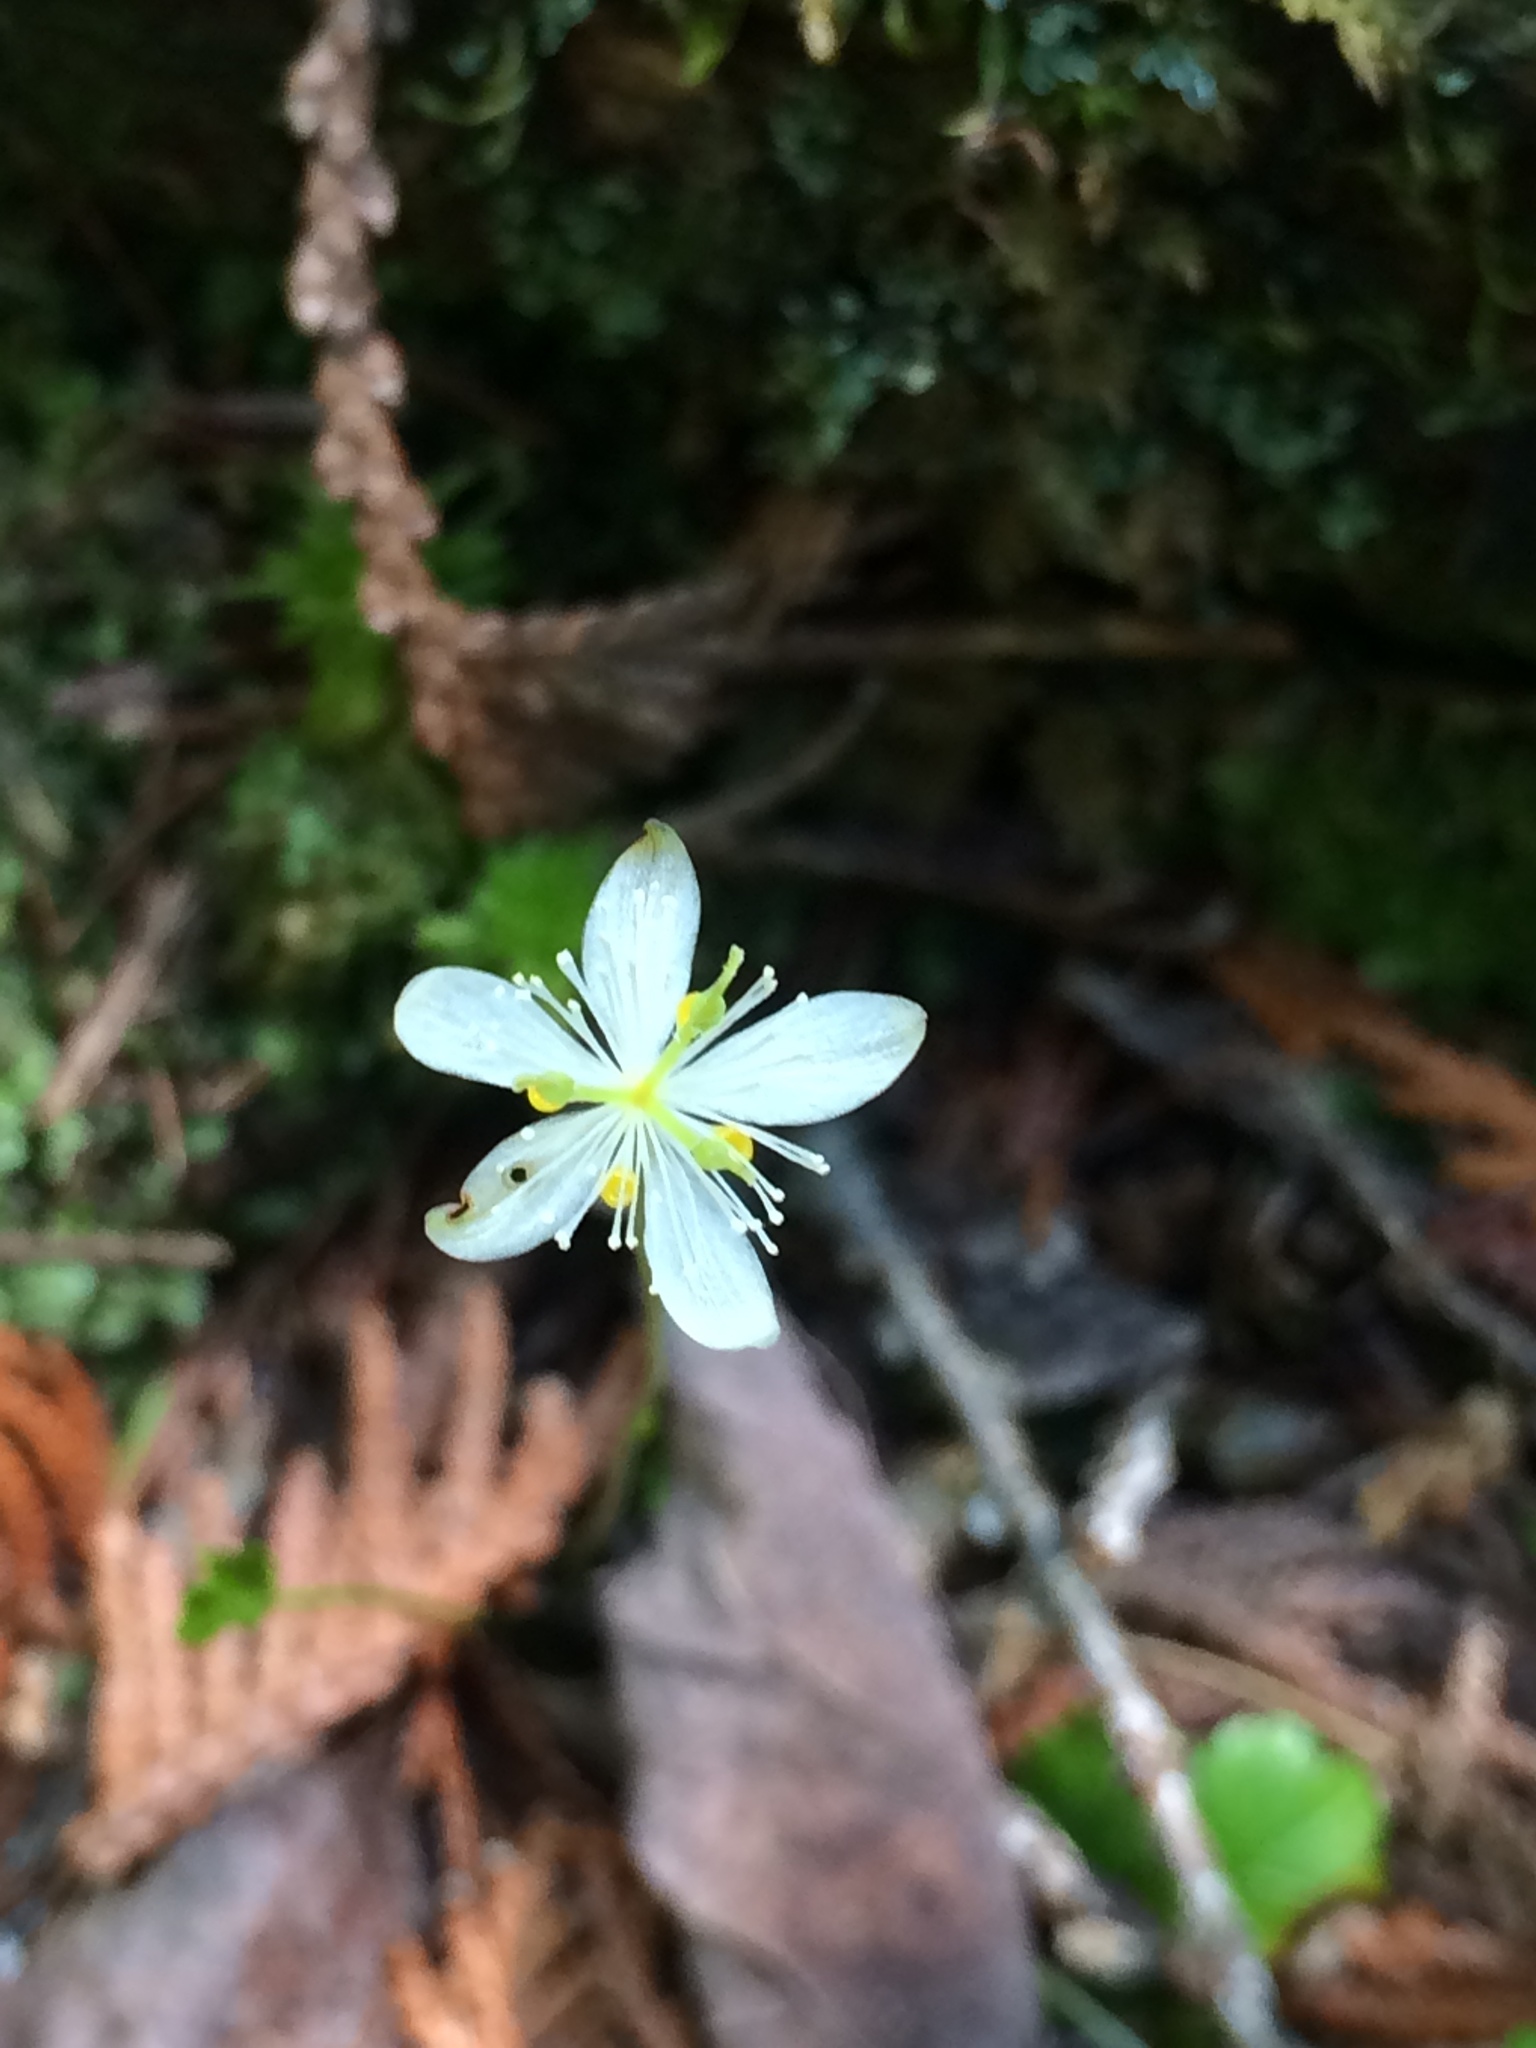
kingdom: Plantae
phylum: Tracheophyta
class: Magnoliopsida
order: Ranunculales
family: Ranunculaceae
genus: Coptis
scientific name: Coptis trifolia
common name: Canker-root
